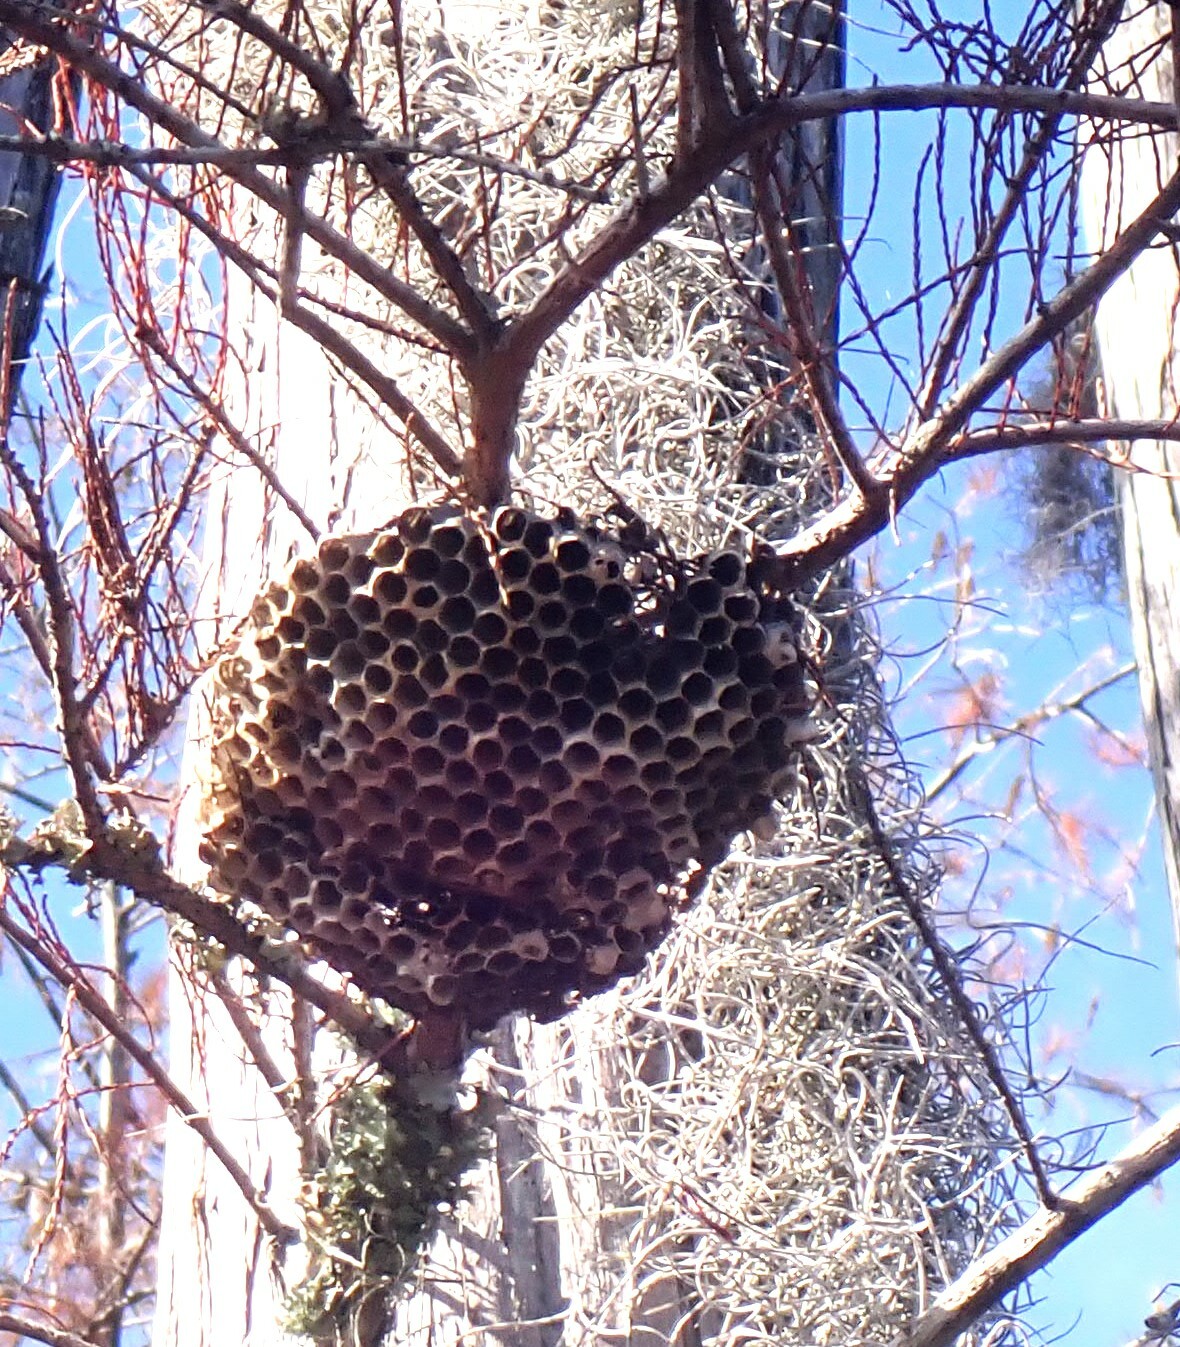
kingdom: Animalia
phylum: Arthropoda
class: Insecta
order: Hymenoptera
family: Eumenidae
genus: Polistes
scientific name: Polistes
